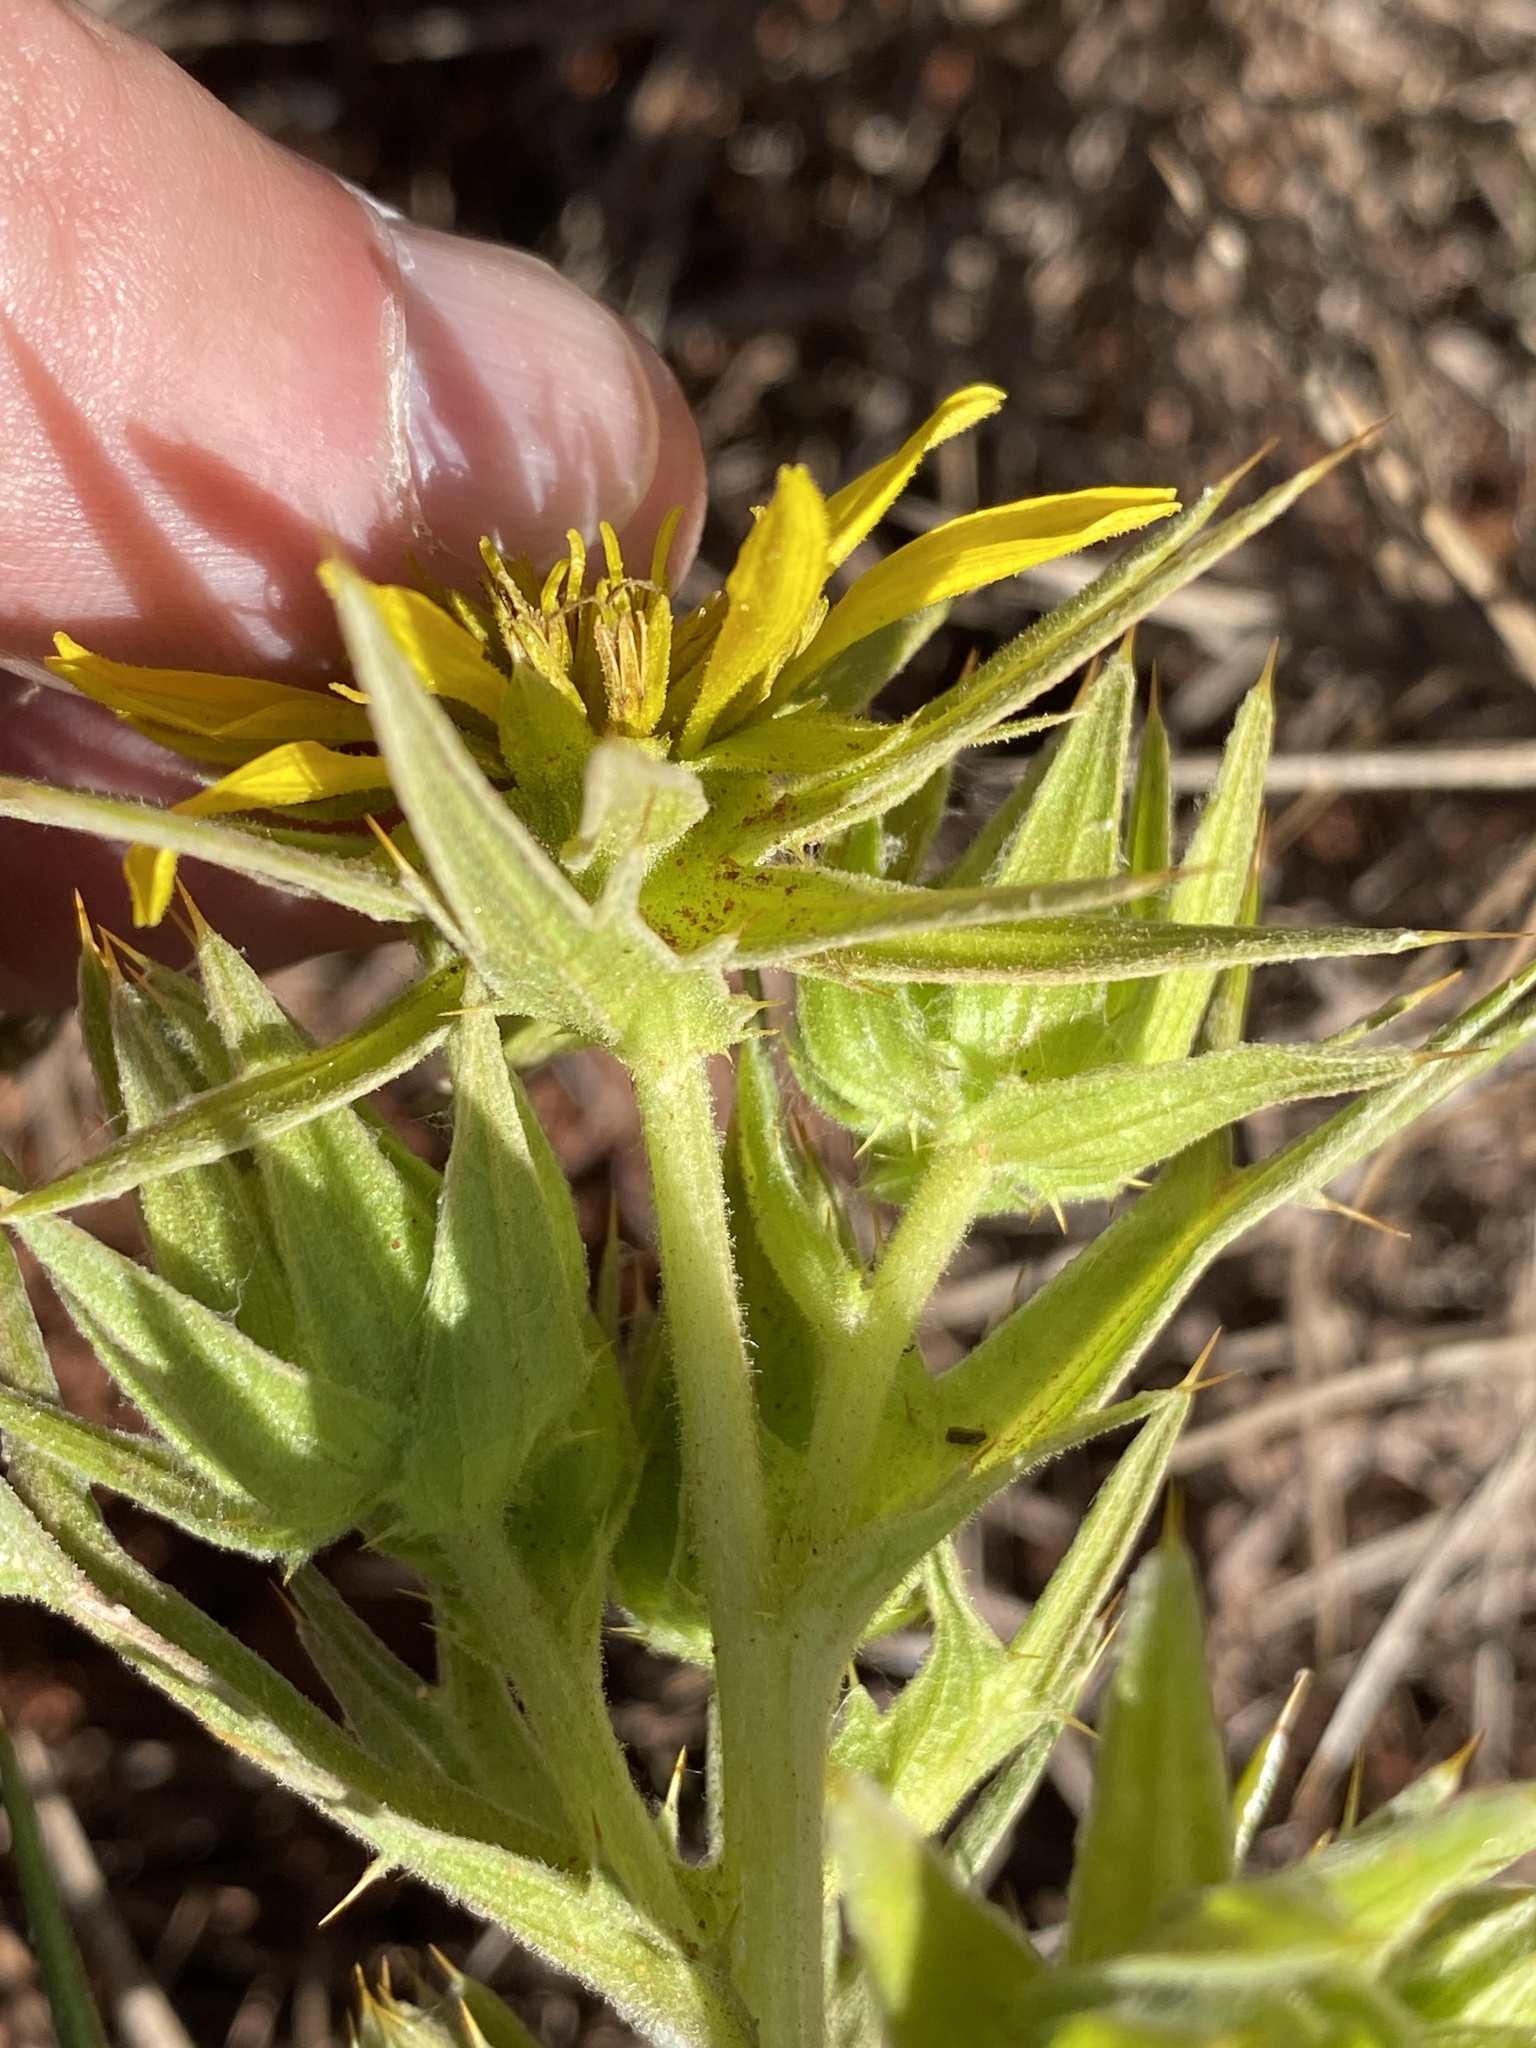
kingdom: Plantae
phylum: Tracheophyta
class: Magnoliopsida
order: Asterales
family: Asteraceae
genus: Heterorhachis
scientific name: Heterorhachis aculeata
